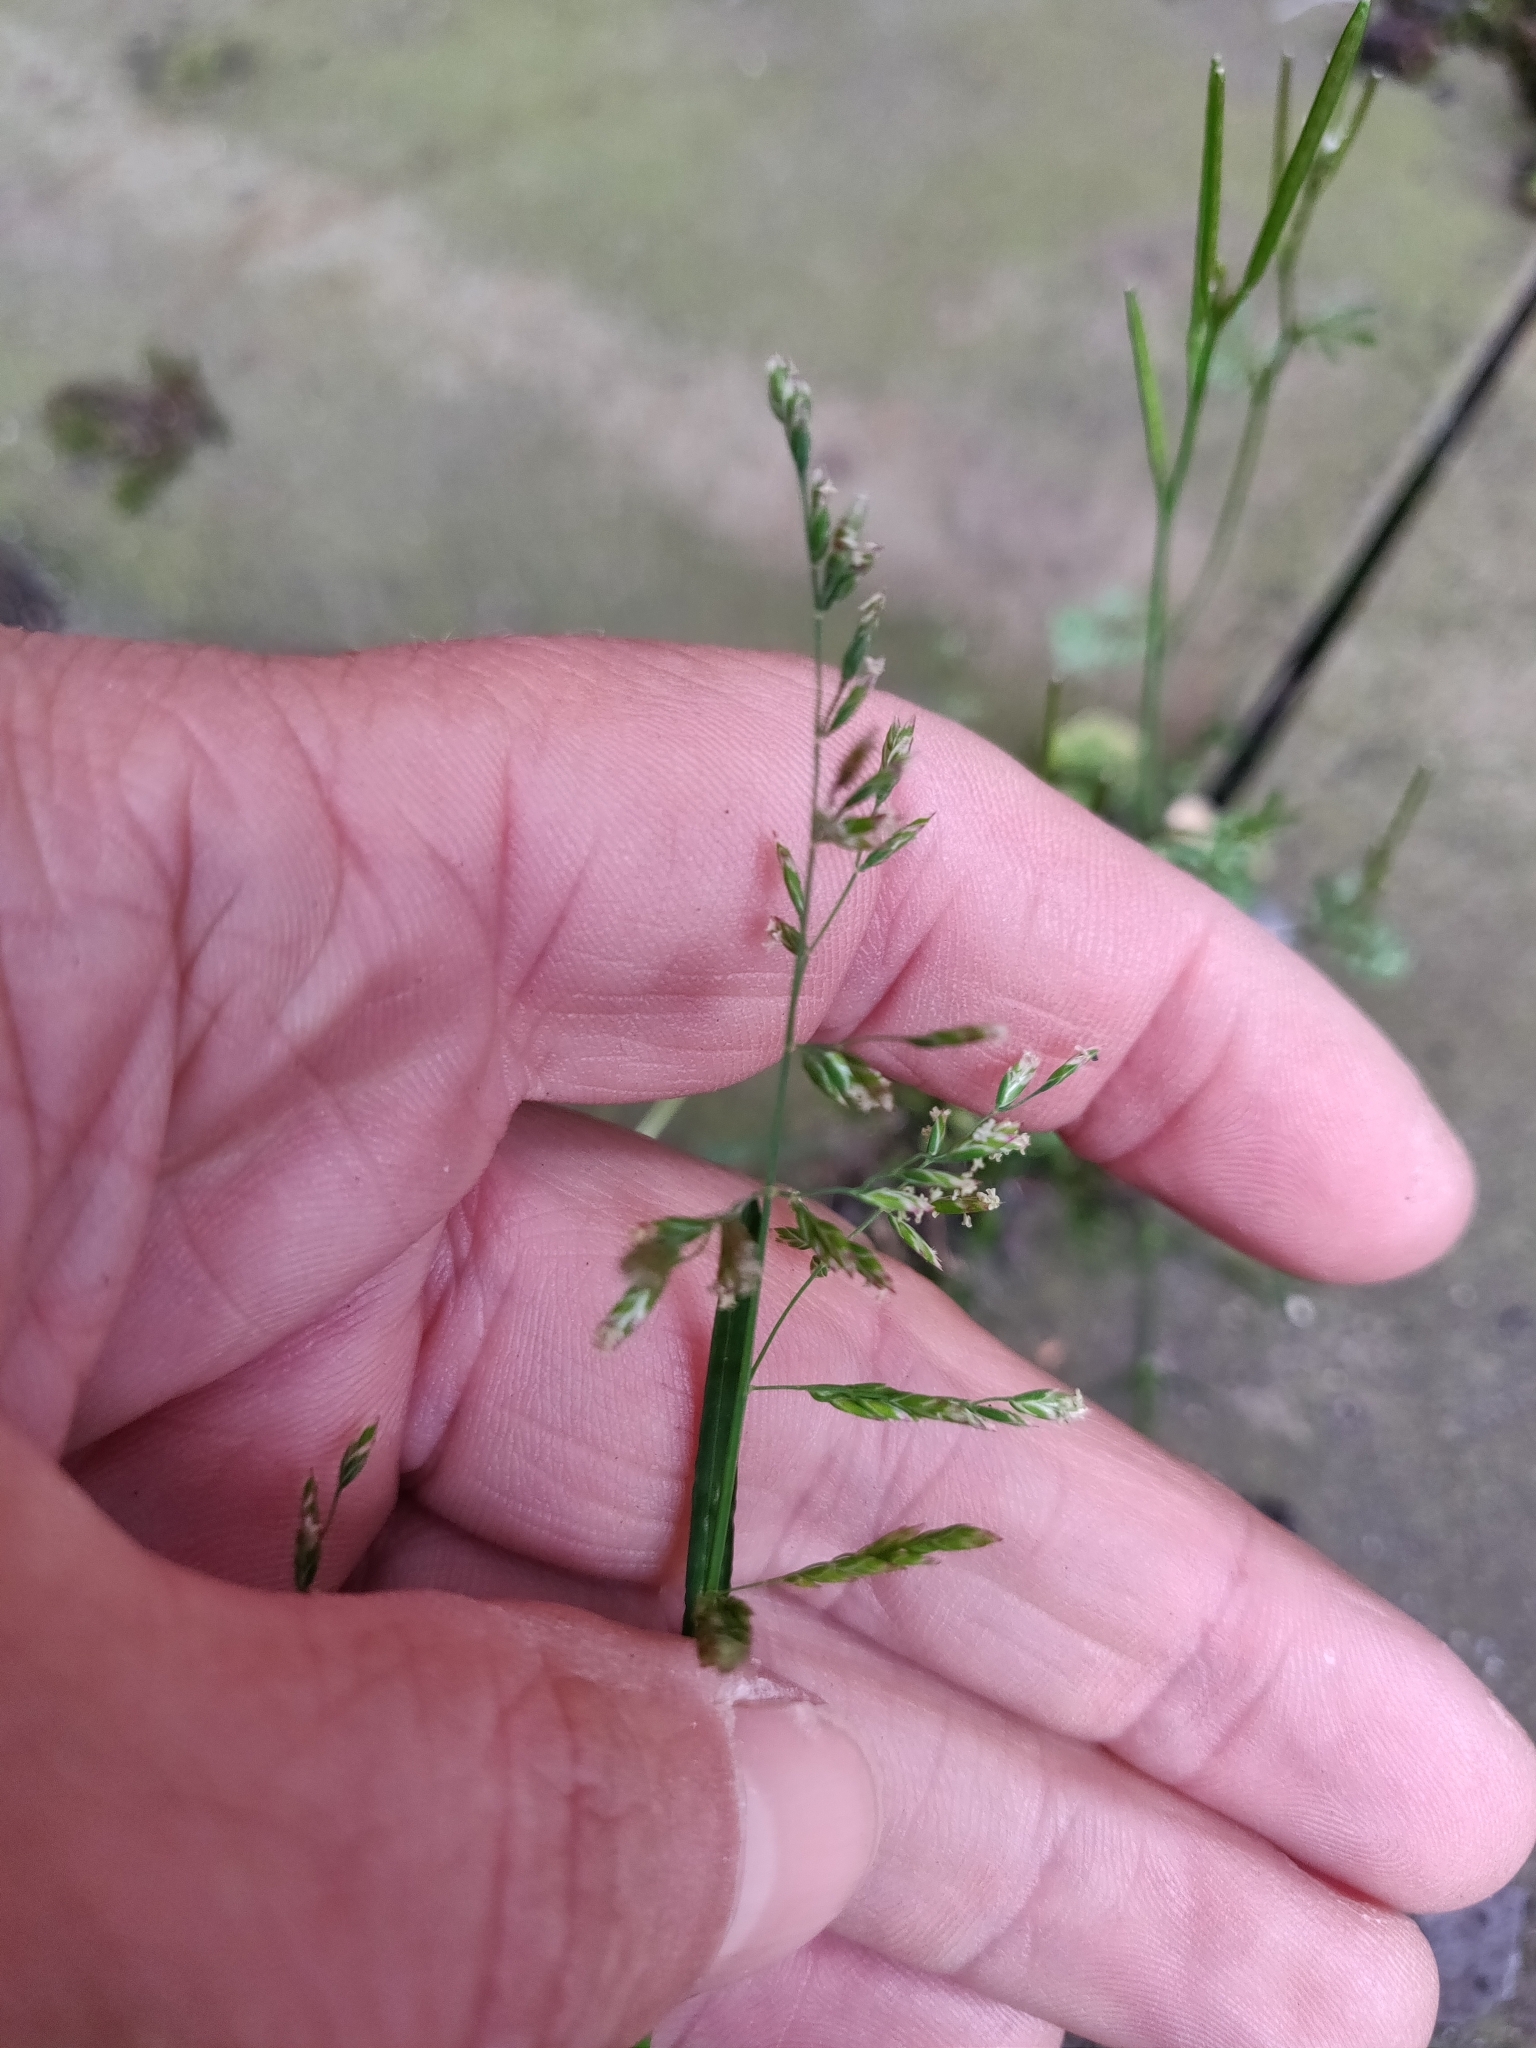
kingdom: Plantae
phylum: Tracheophyta
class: Liliopsida
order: Poales
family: Poaceae
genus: Poa
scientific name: Poa annua
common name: Annual bluegrass
